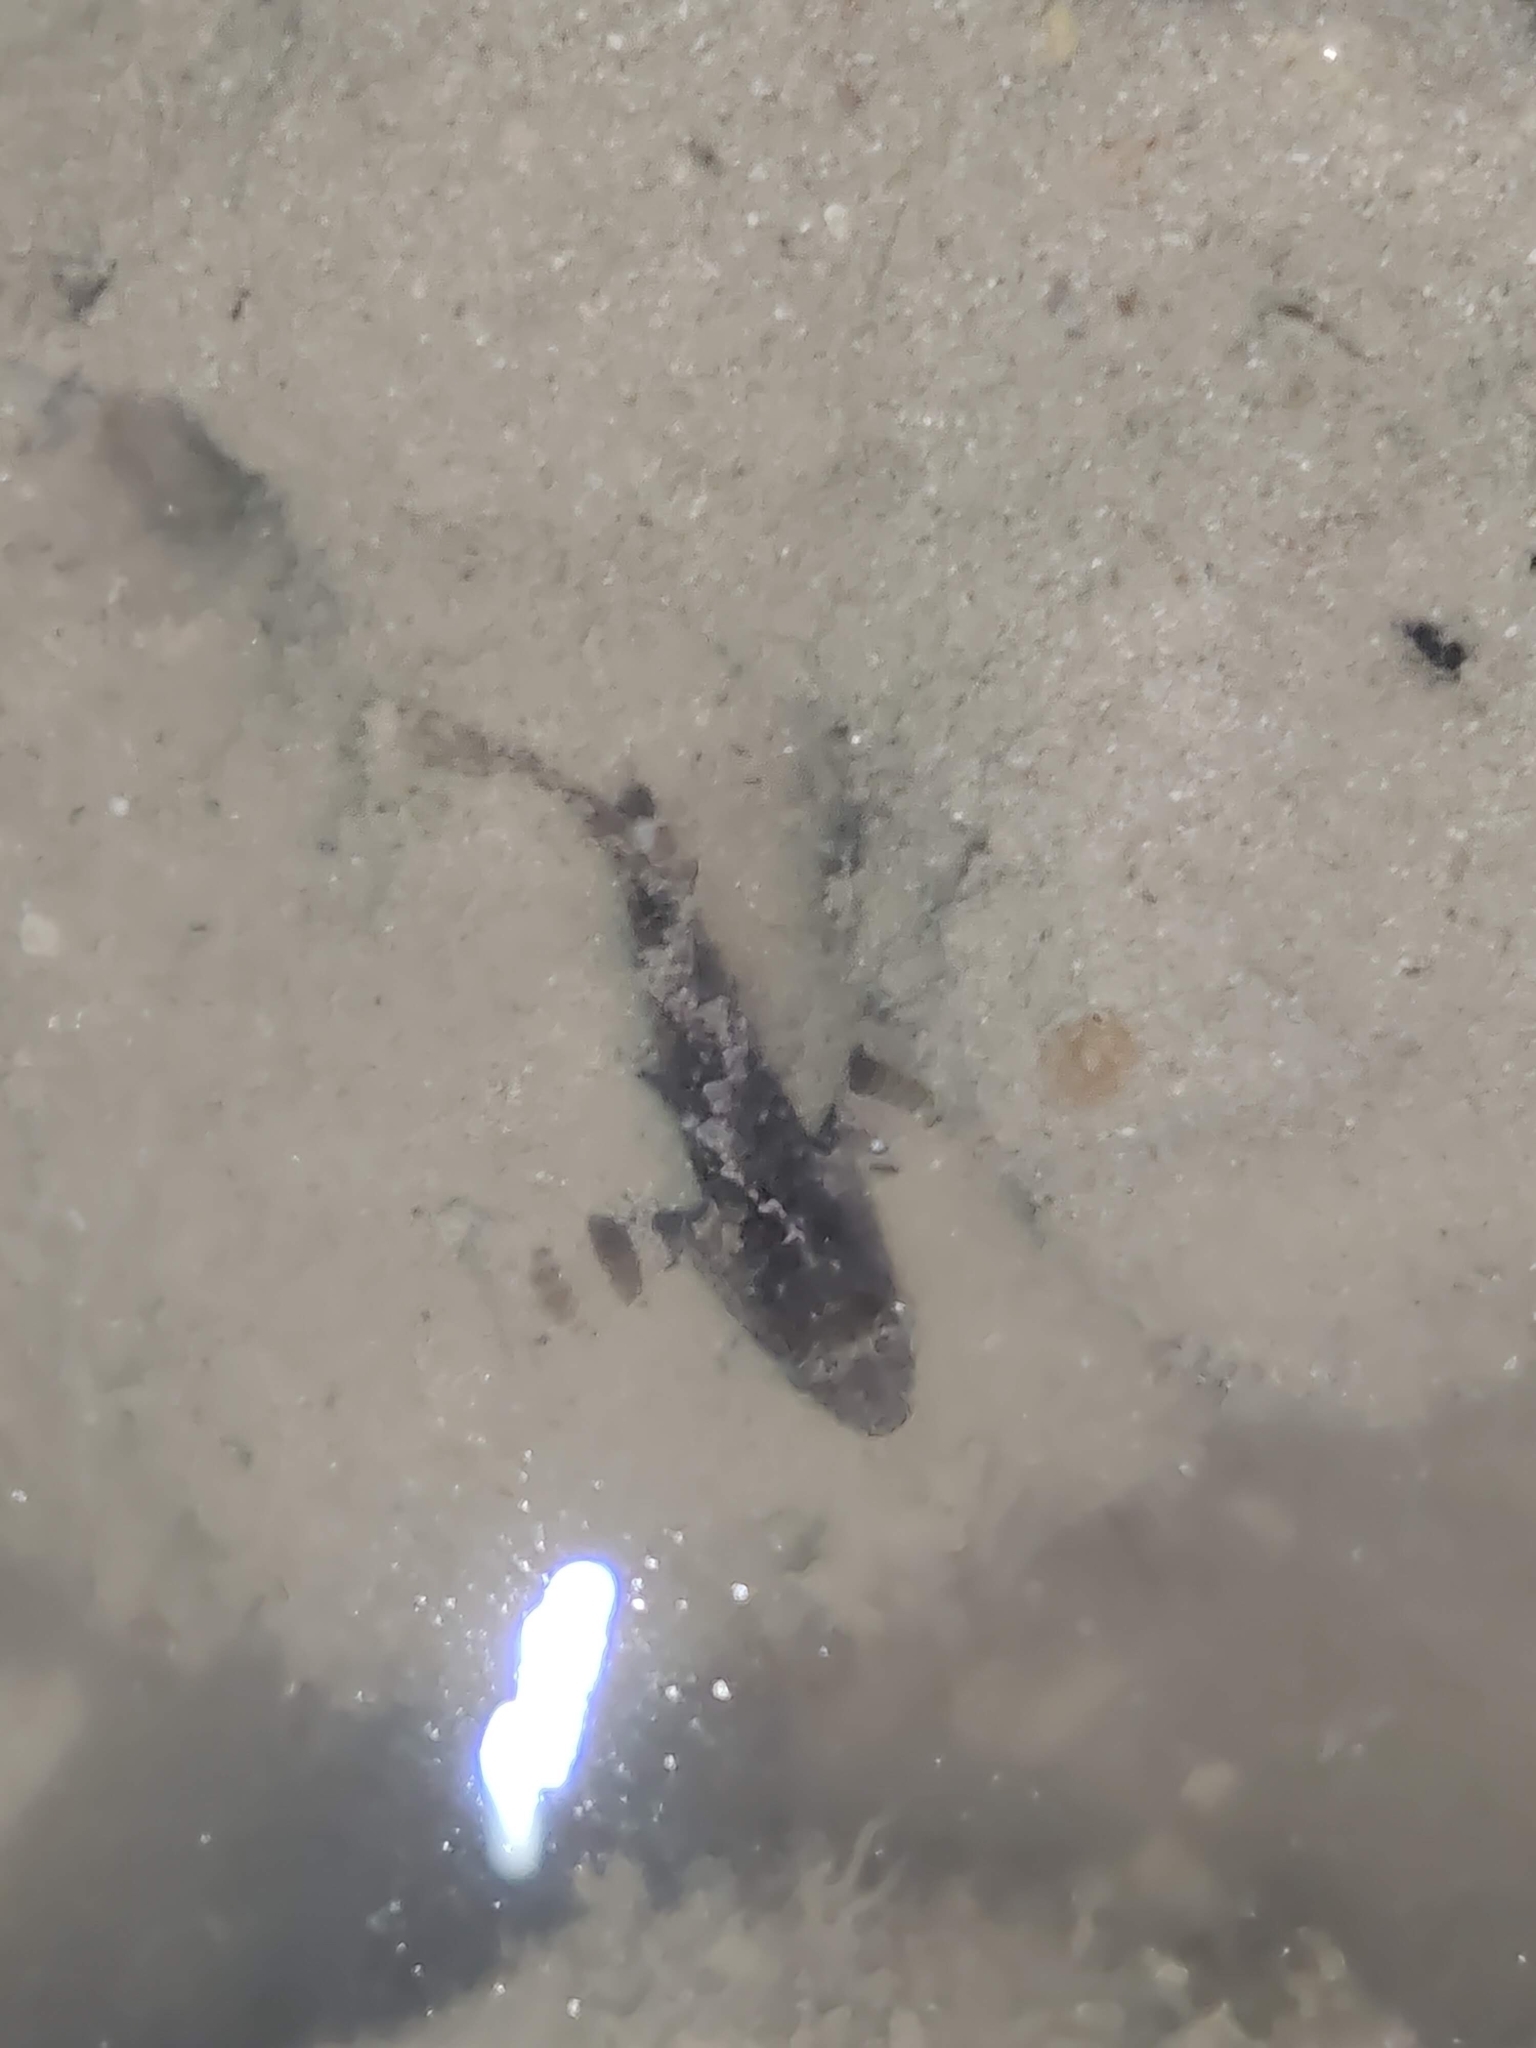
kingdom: Animalia
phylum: Chordata
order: Perciformes
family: Centrogenyidae
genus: Centrogenys
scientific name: Centrogenys vaigiensis
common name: False scorpionfish
